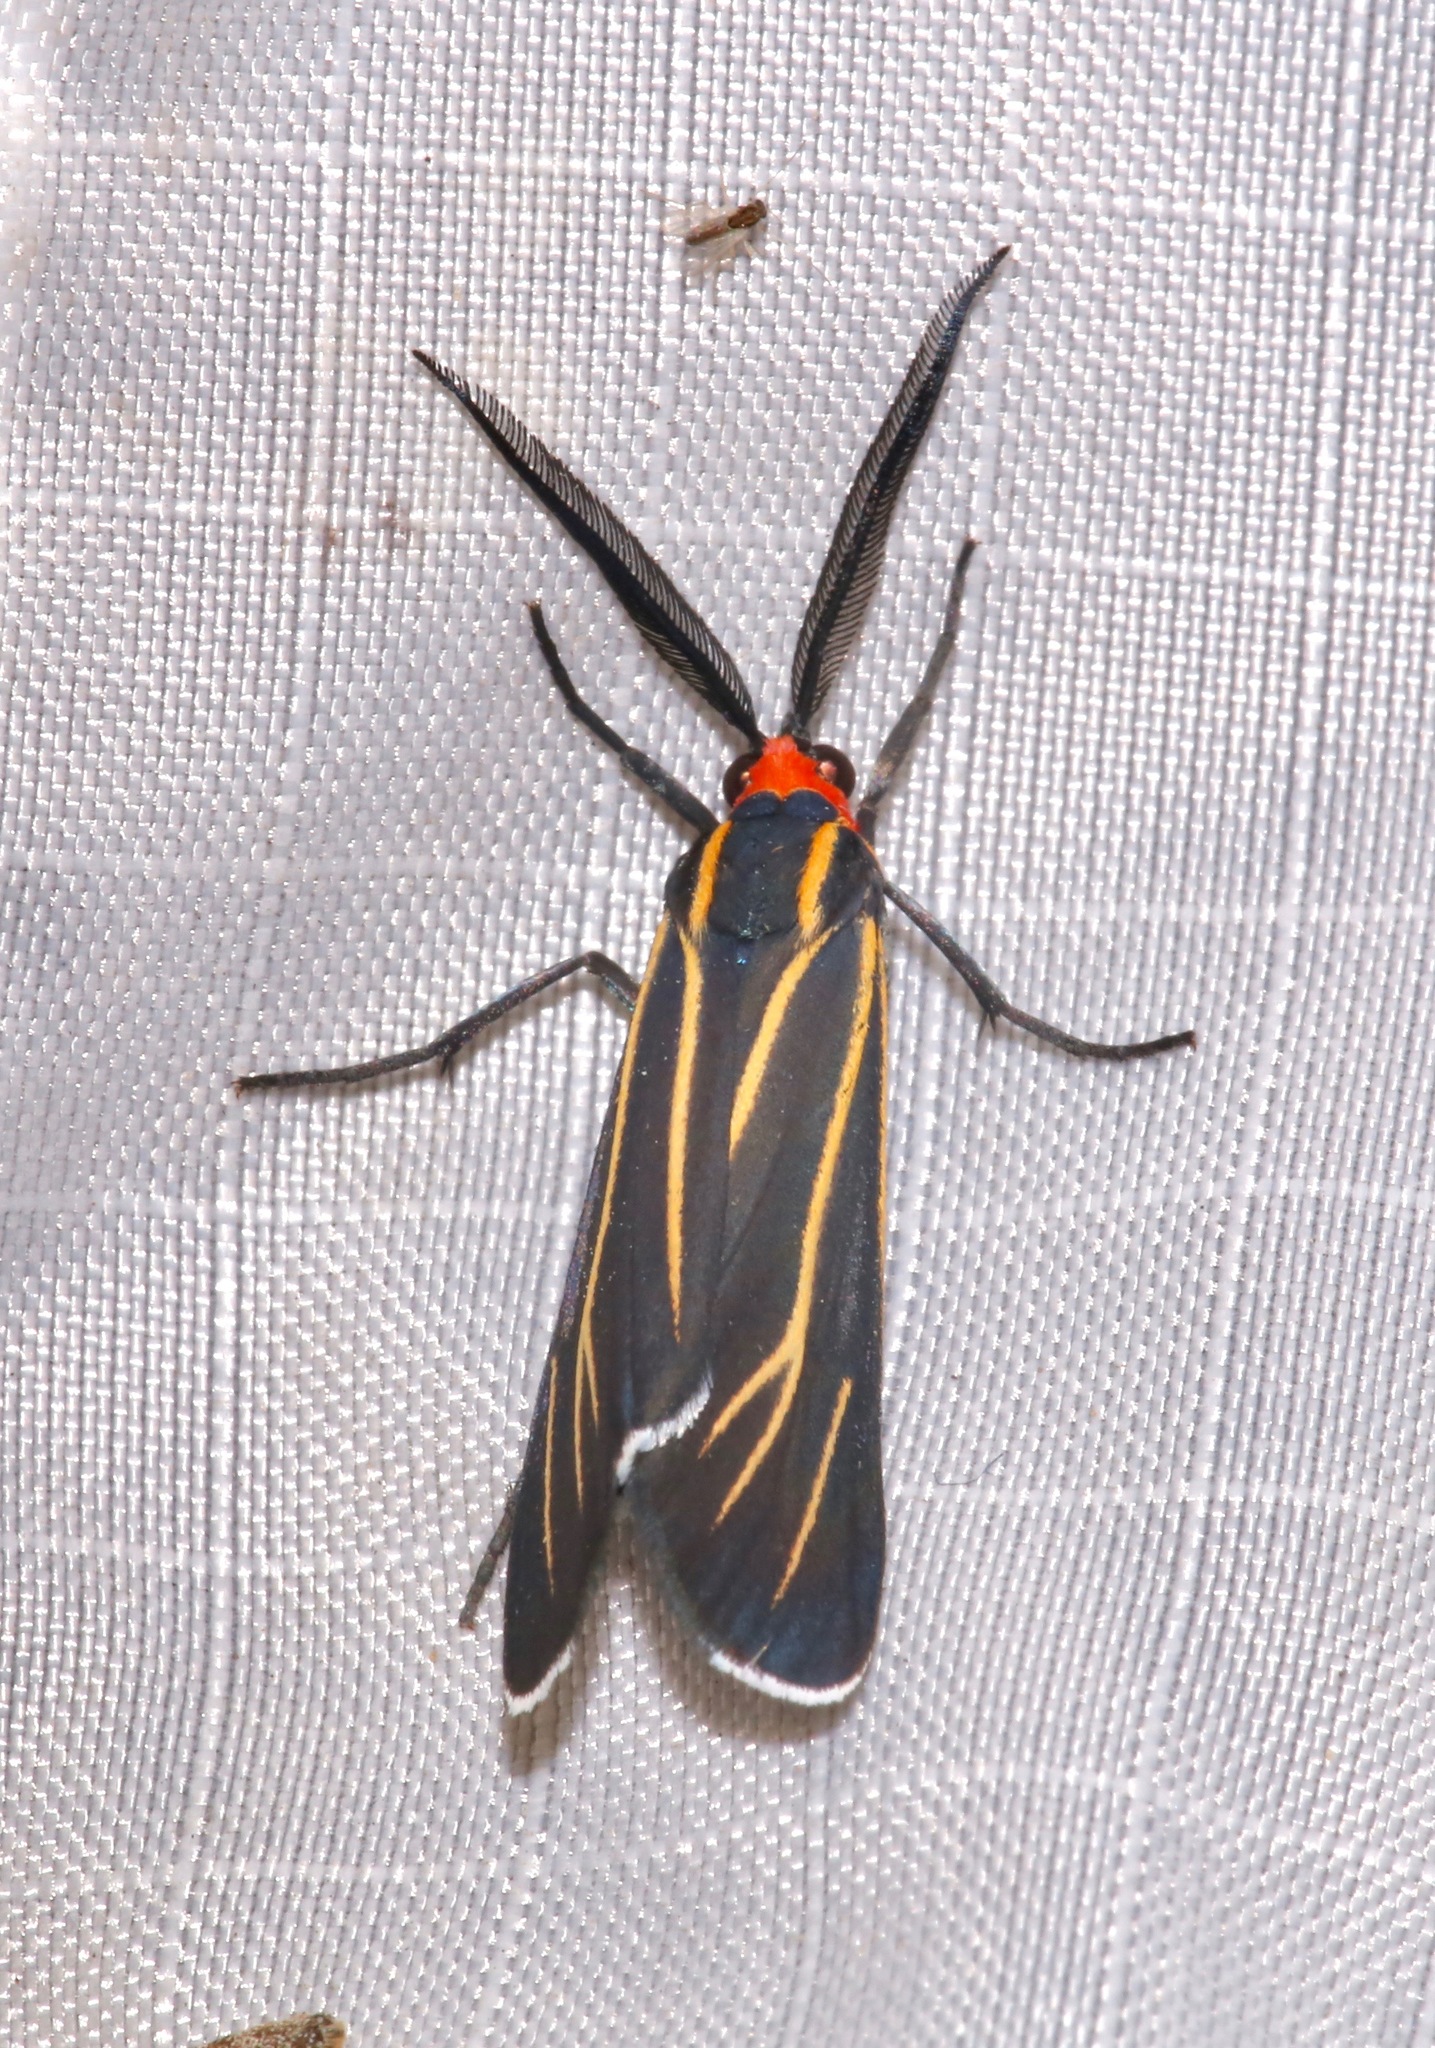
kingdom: Animalia
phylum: Arthropoda
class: Insecta
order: Lepidoptera
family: Erebidae
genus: Ctenucha
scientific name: Ctenucha venosa
